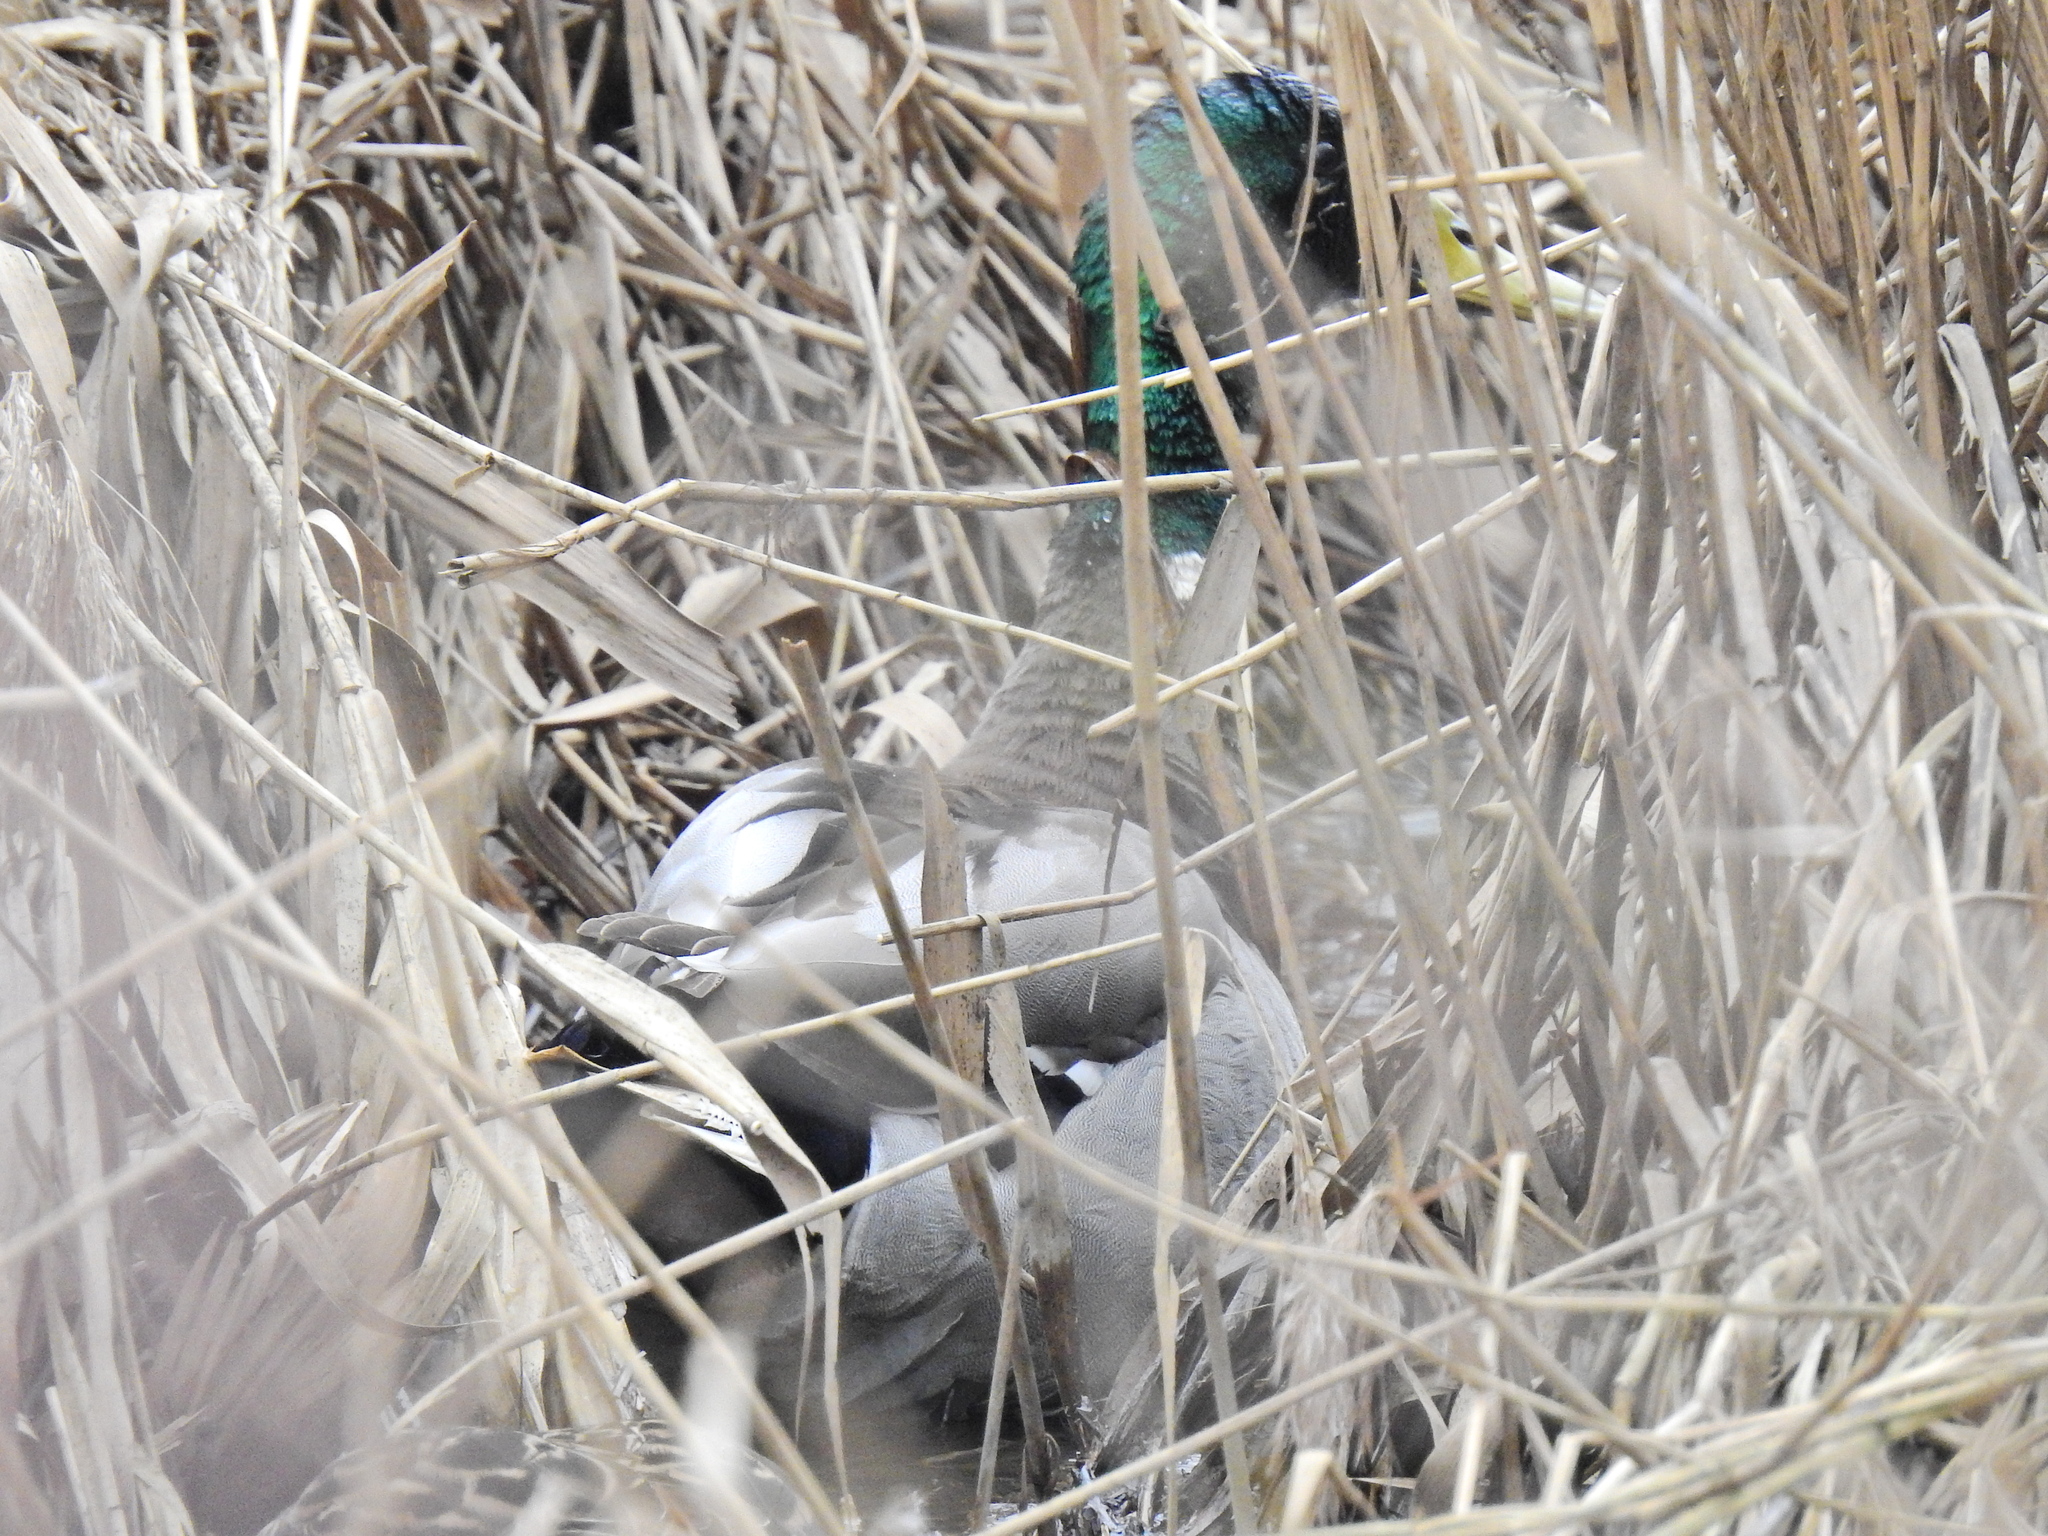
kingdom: Animalia
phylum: Chordata
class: Aves
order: Anseriformes
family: Anatidae
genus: Anas
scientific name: Anas platyrhynchos
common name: Mallard
